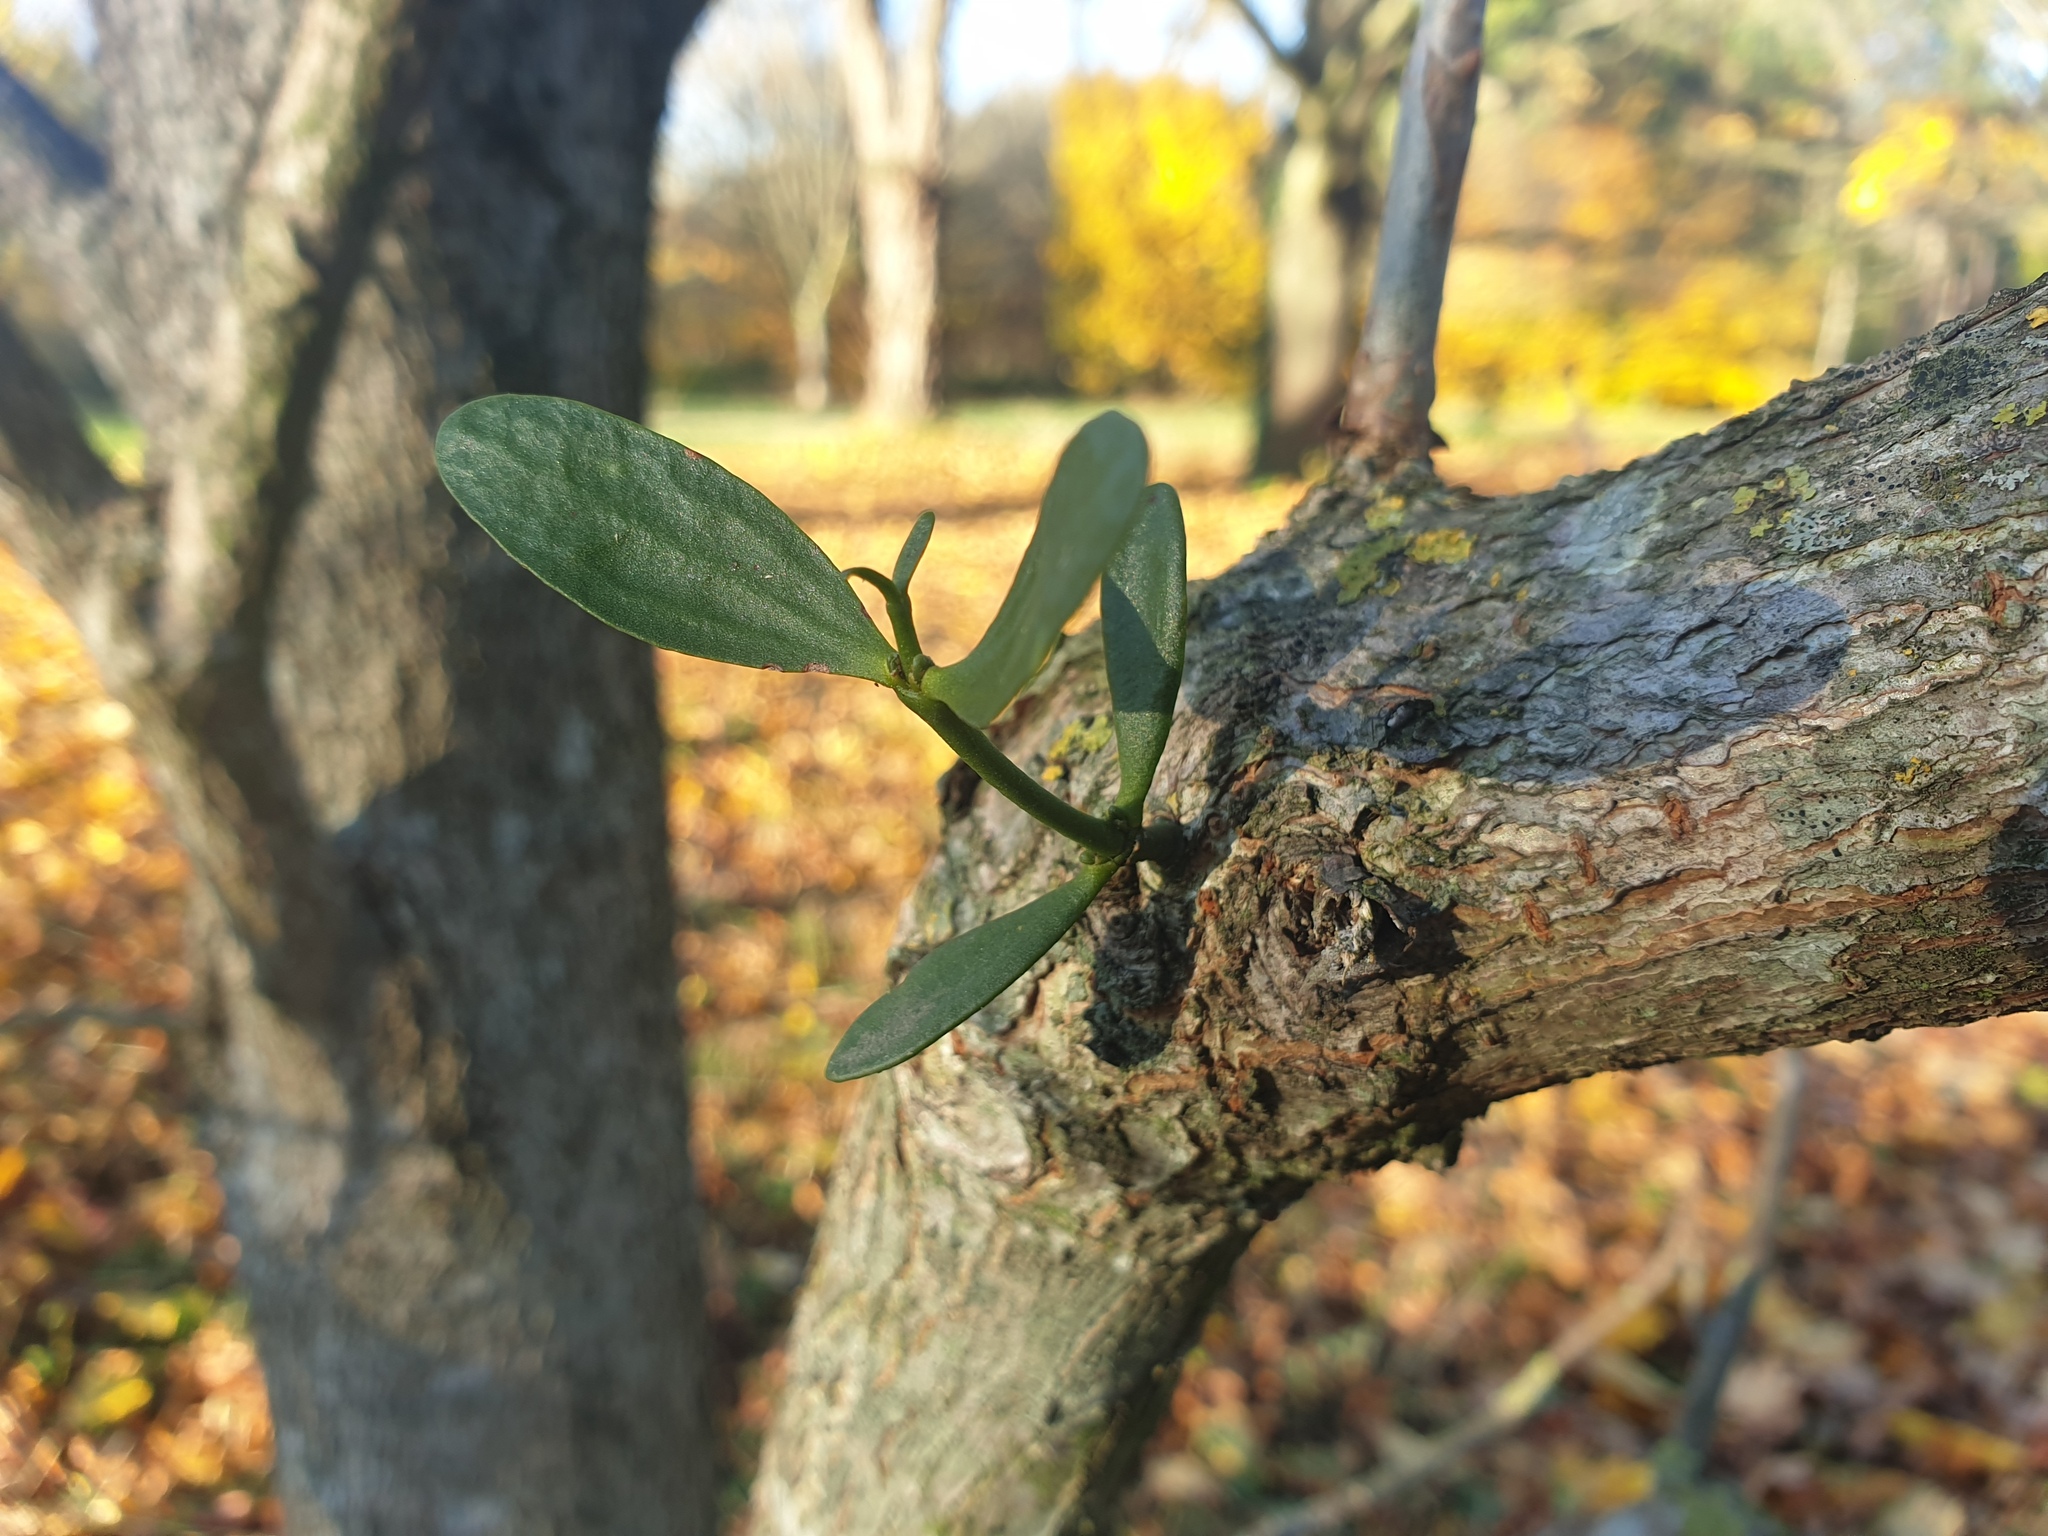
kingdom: Plantae
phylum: Tracheophyta
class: Magnoliopsida
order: Santalales
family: Viscaceae
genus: Viscum
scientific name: Viscum album
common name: Mistletoe
